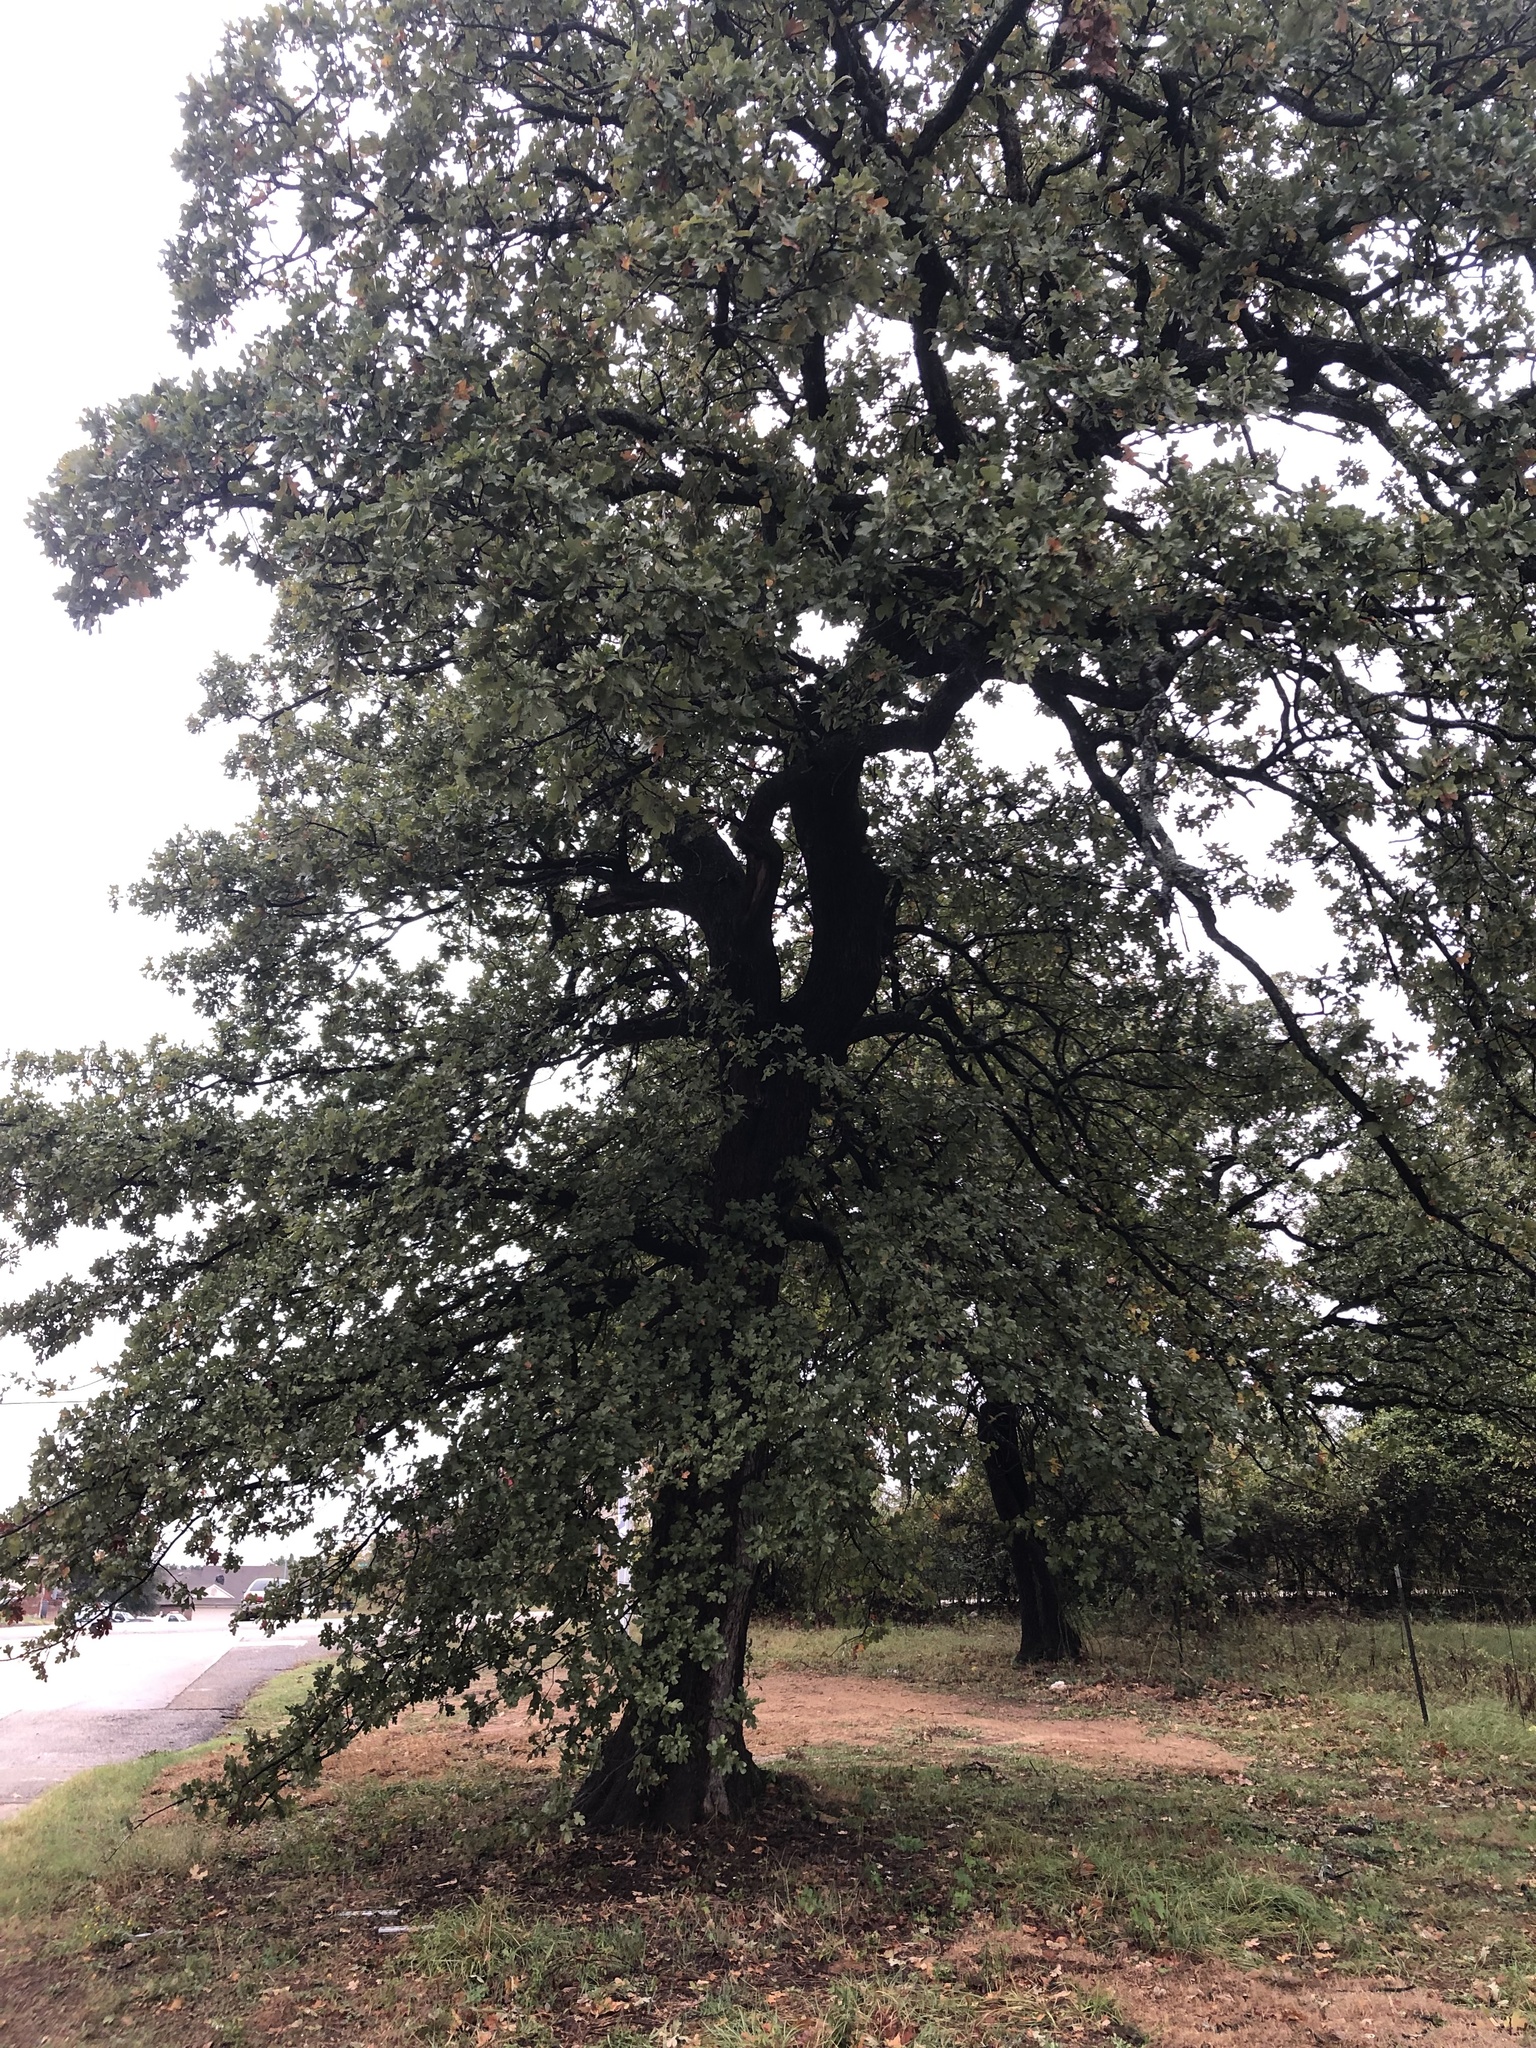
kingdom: Plantae
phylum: Tracheophyta
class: Magnoliopsida
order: Fagales
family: Fagaceae
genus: Quercus
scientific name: Quercus stellata
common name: Post oak
